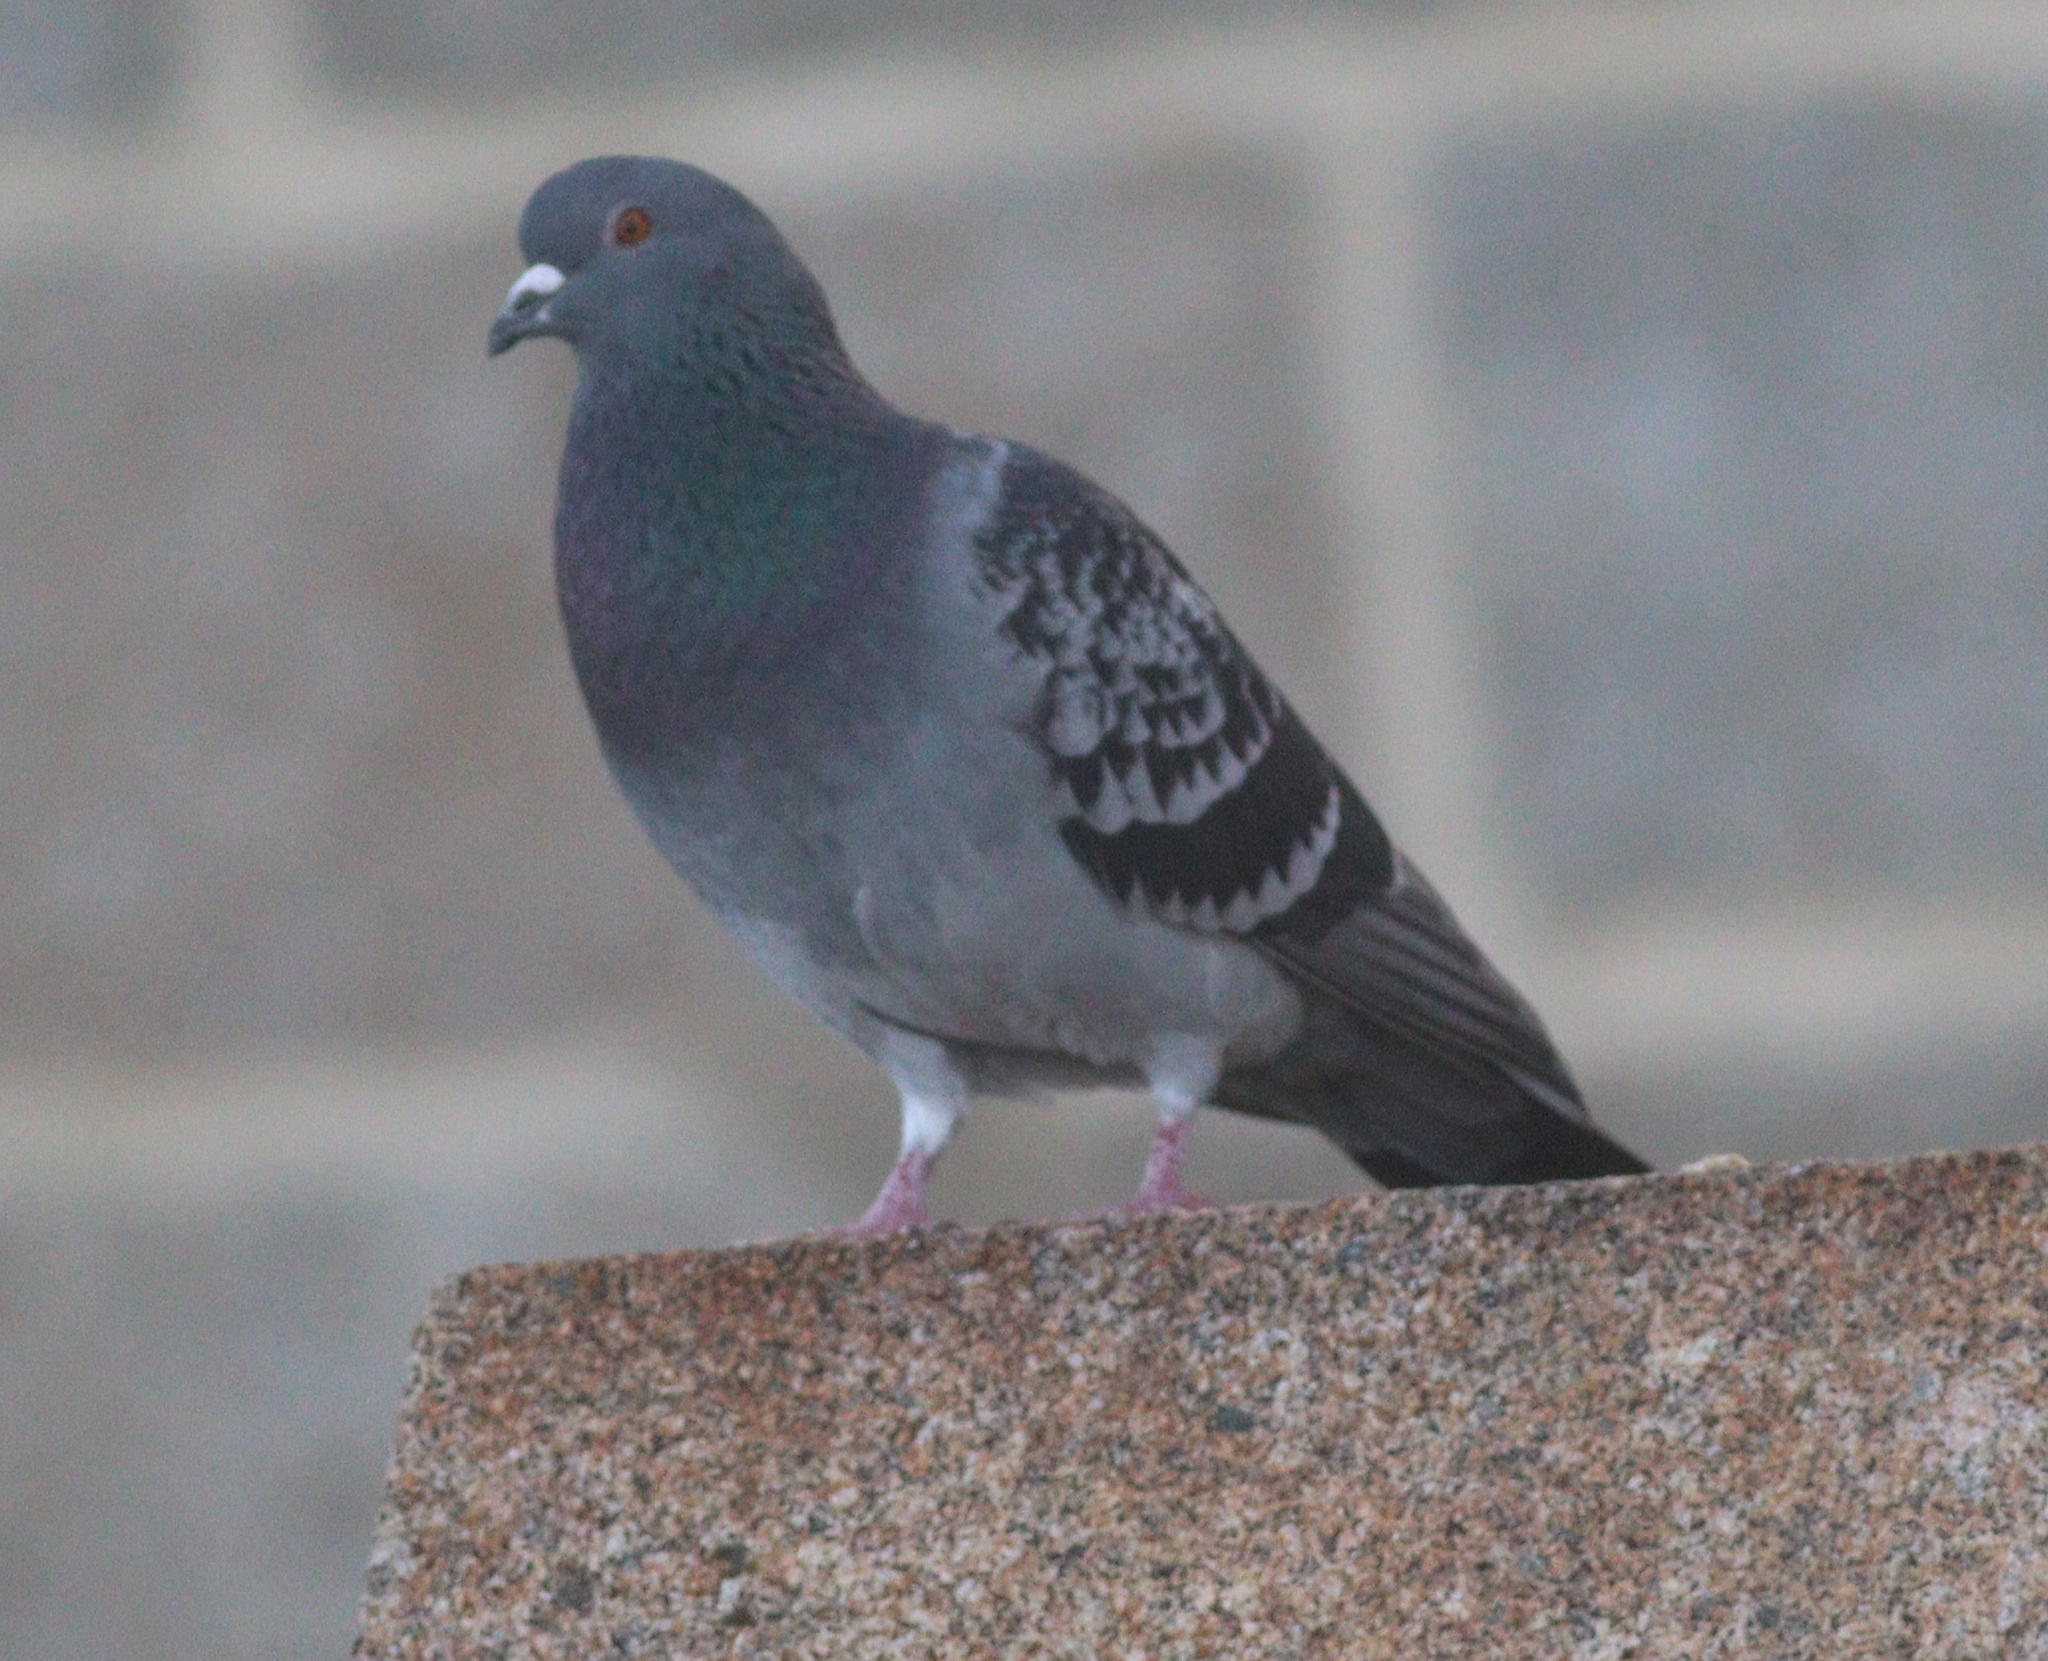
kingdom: Animalia
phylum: Chordata
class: Aves
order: Columbiformes
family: Columbidae
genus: Columba
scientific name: Columba livia
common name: Rock pigeon
